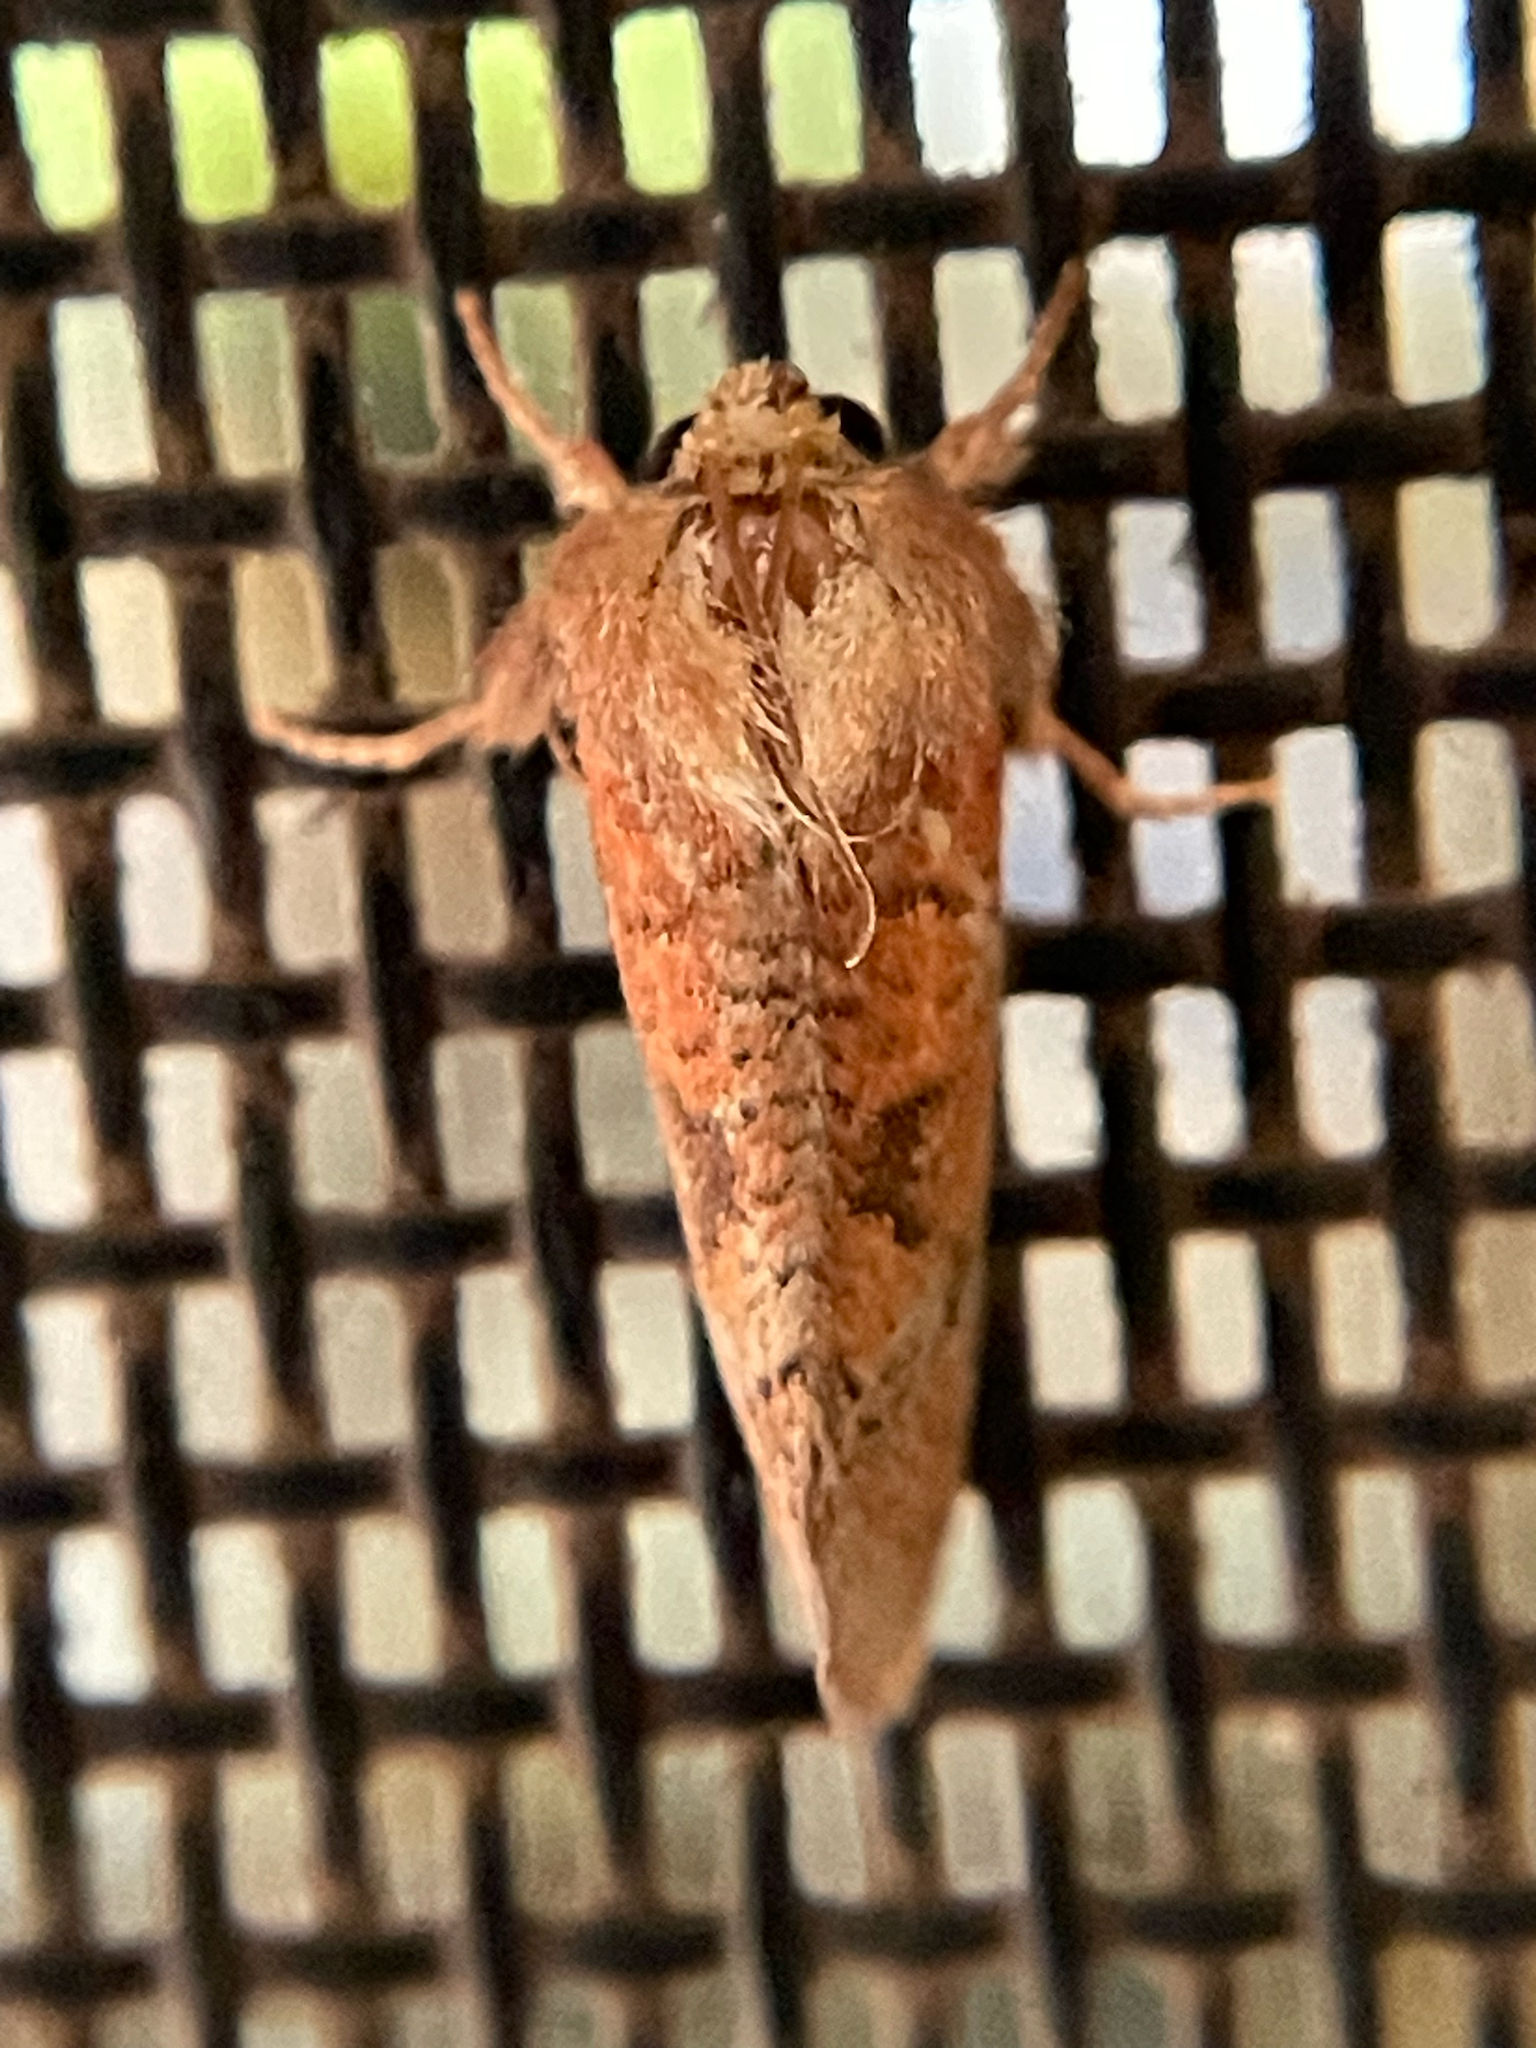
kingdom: Animalia
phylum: Arthropoda
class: Insecta
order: Lepidoptera
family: Tineidae
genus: Acrolophus
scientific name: Acrolophus plumifrontella
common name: Eastern grass tubeworm moth
